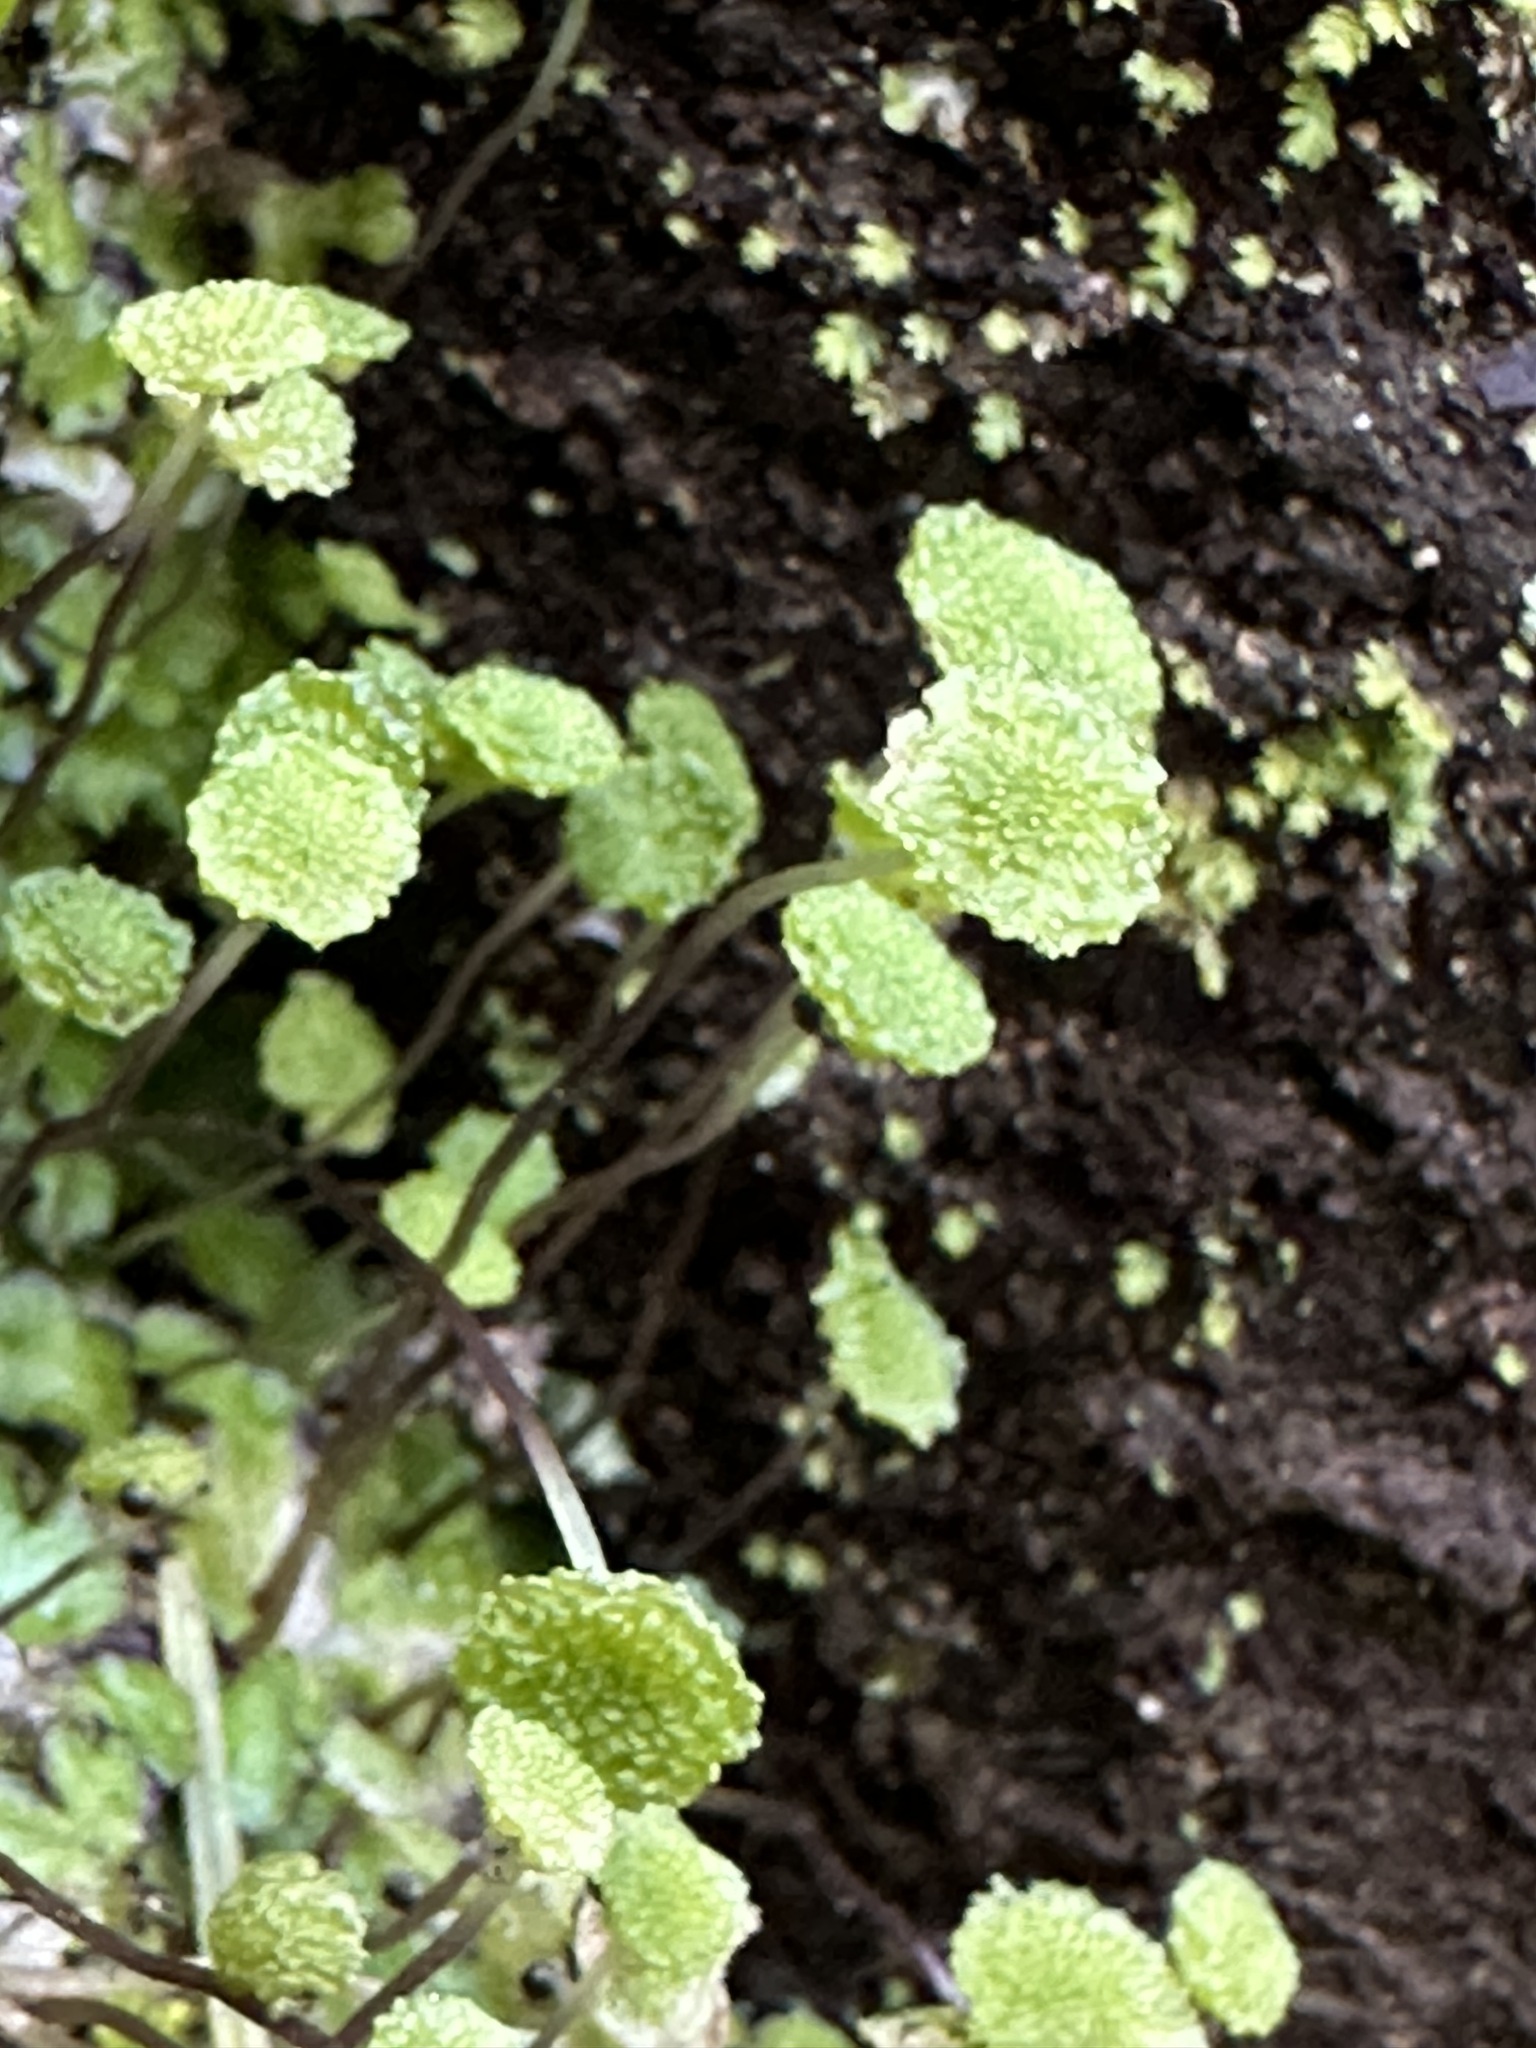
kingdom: Plantae
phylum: Marchantiophyta
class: Marchantiopsida
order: Marchantiales
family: Aytoniaceae
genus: Cryptomitrium
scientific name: Cryptomitrium tenerum
